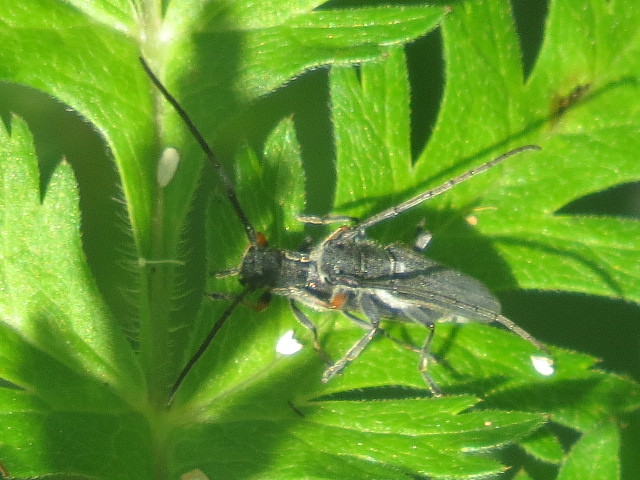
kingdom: Animalia
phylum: Arthropoda
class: Insecta
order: Coleoptera
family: Cerambycidae
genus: Phytoecia
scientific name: Phytoecia cylindrica
